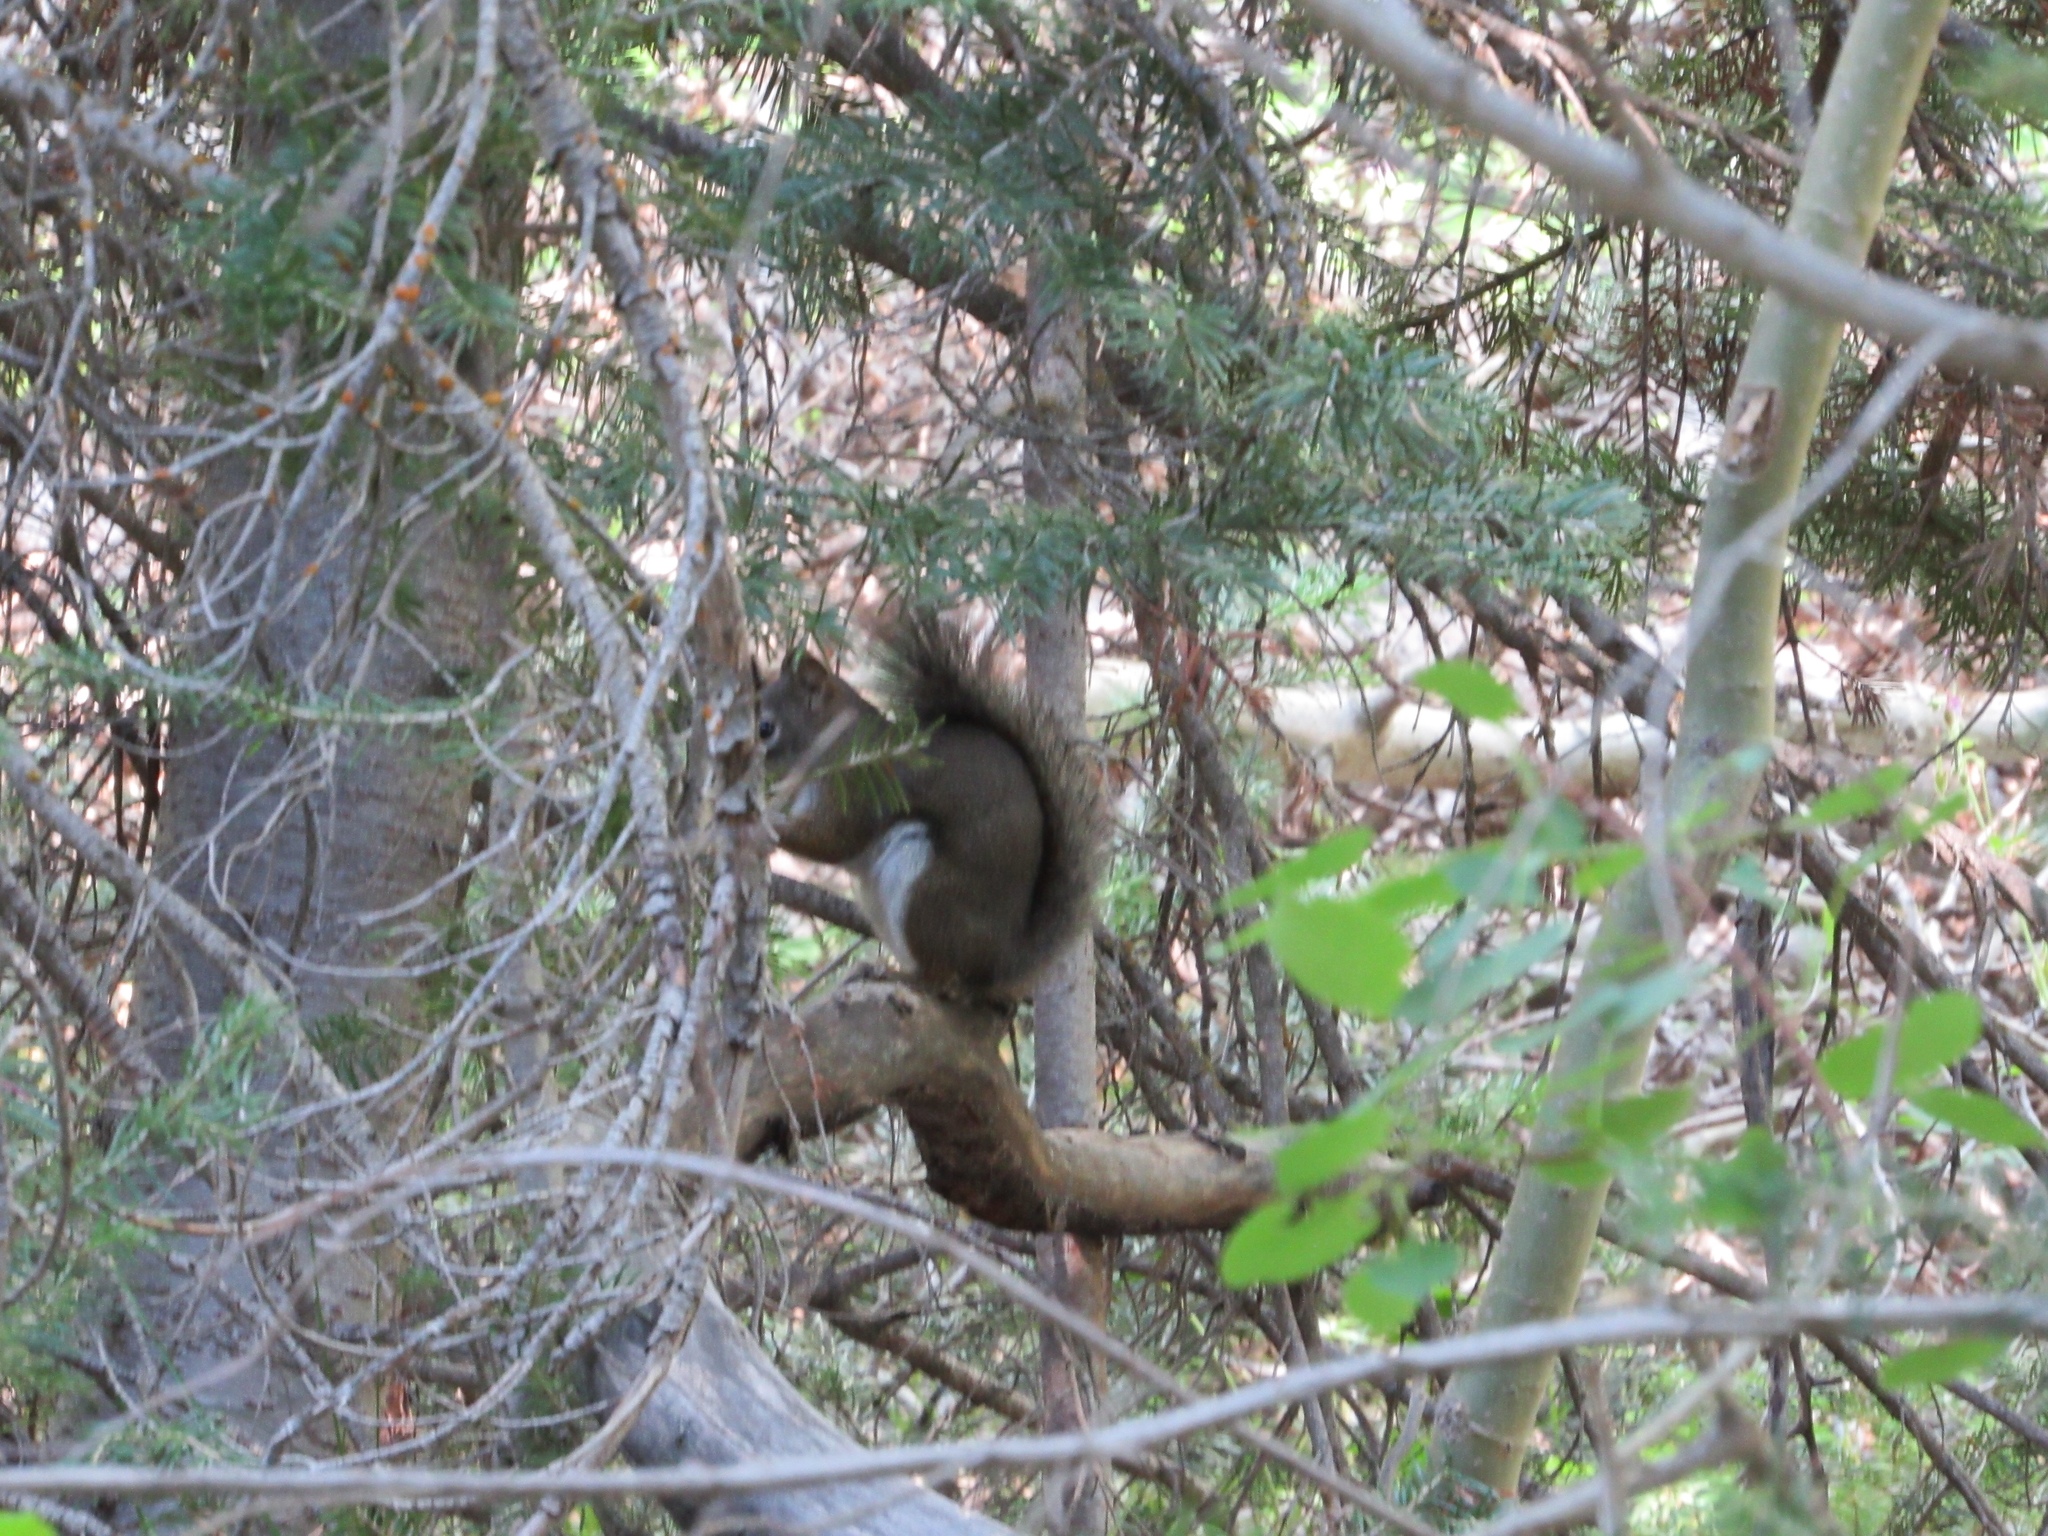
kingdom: Animalia
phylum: Chordata
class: Mammalia
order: Rodentia
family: Sciuridae
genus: Tamiasciurus
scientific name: Tamiasciurus hudsonicus
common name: Red squirrel
